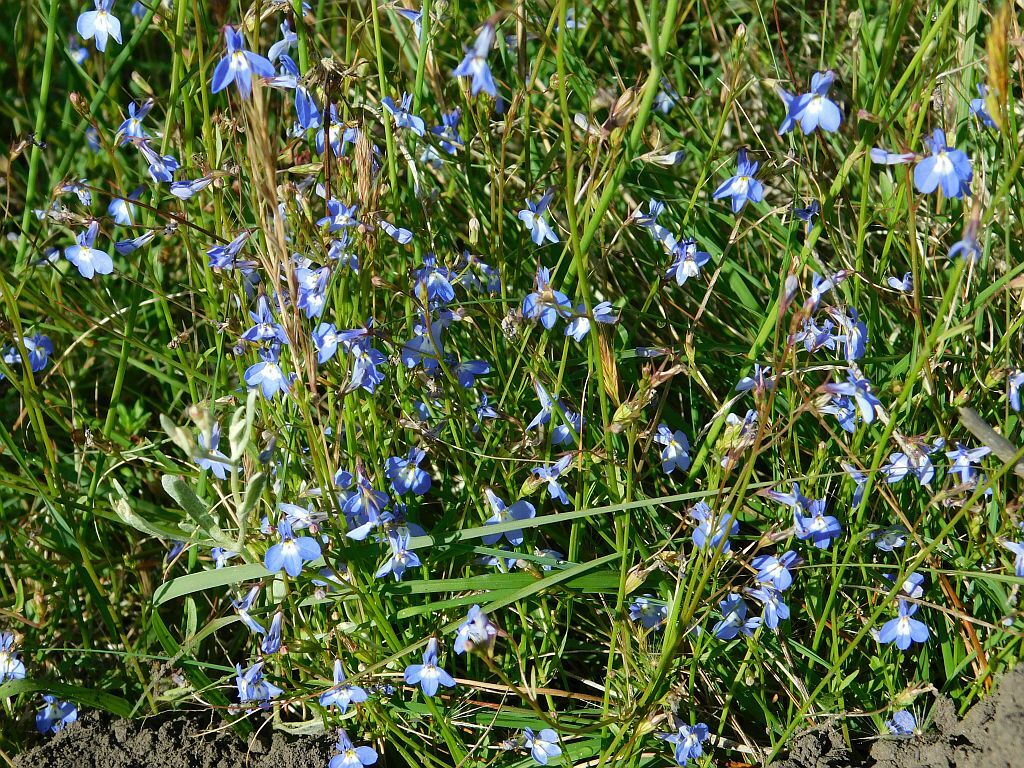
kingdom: Plantae
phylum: Tracheophyta
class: Magnoliopsida
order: Asterales
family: Campanulaceae
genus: Lobelia
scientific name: Lobelia erinus
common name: Edging lobelia
